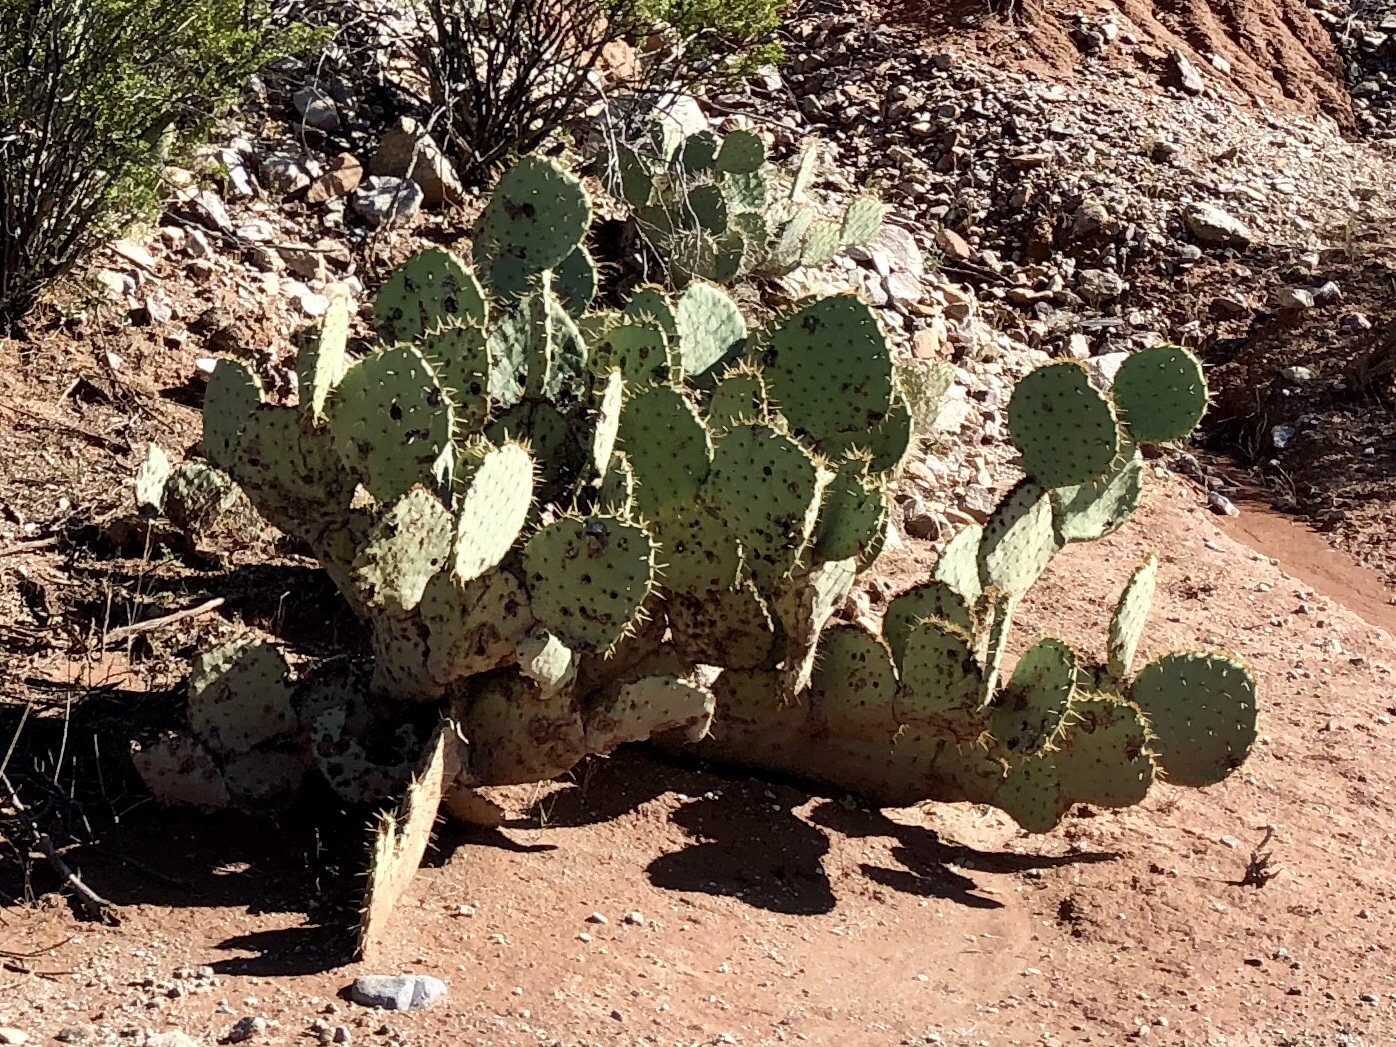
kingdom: Plantae
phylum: Tracheophyta
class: Magnoliopsida
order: Caryophyllales
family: Cactaceae
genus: Opuntia
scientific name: Opuntia engelmannii
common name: Cactus-apple
